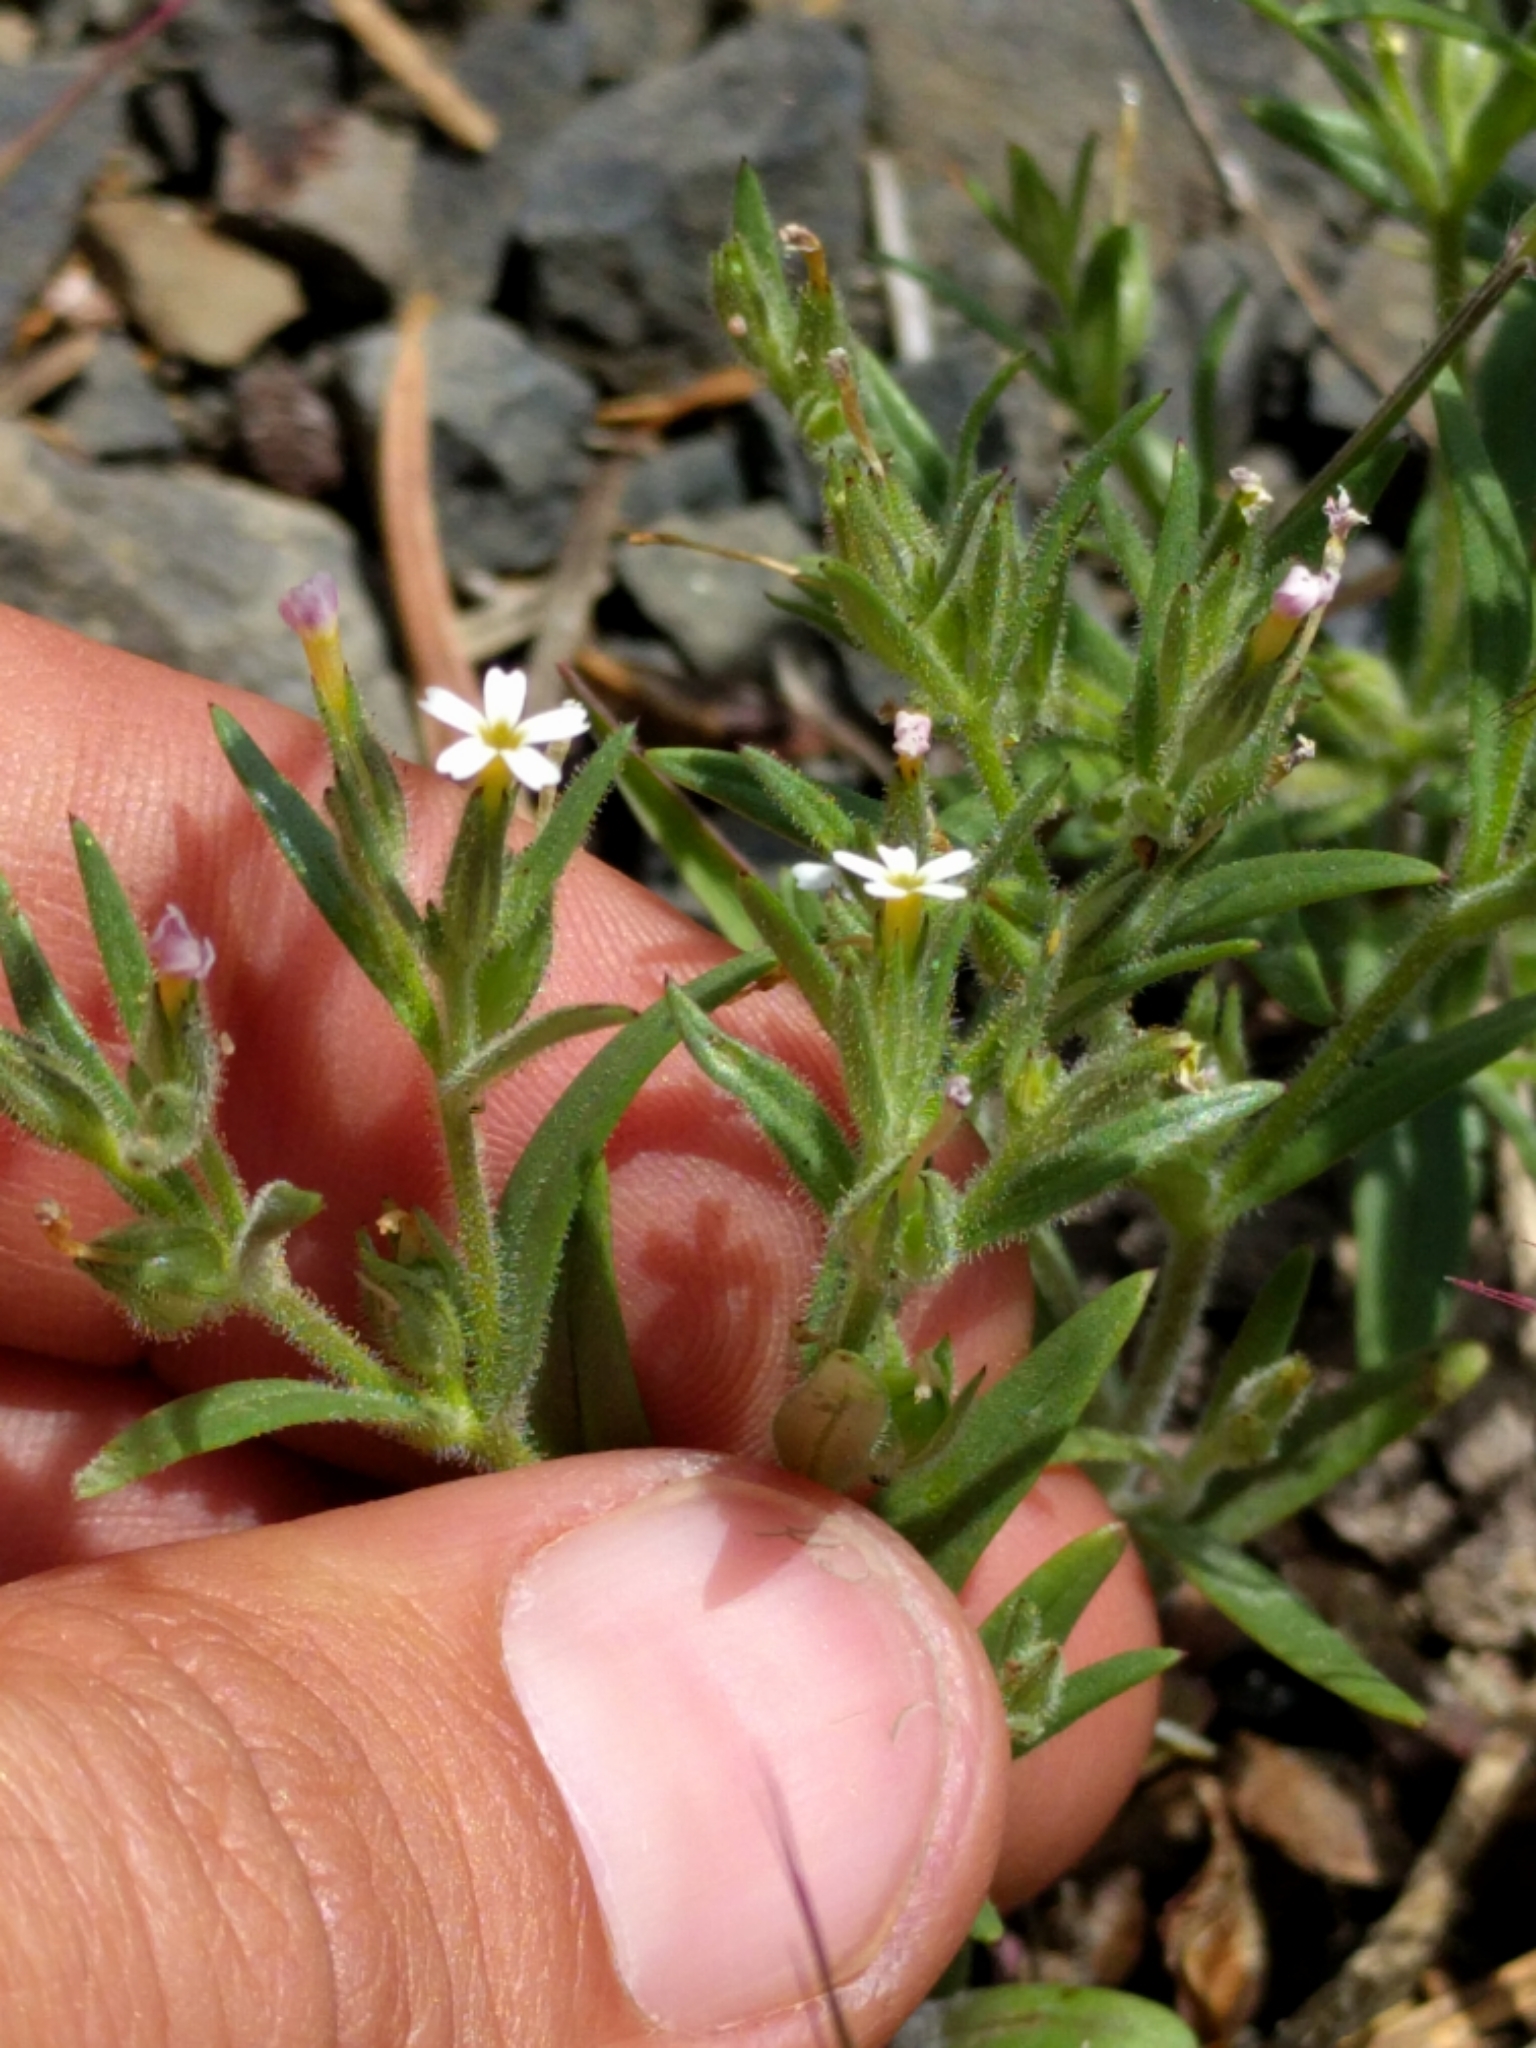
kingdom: Plantae
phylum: Tracheophyta
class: Magnoliopsida
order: Ericales
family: Polemoniaceae
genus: Phlox
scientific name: Phlox gracilis
